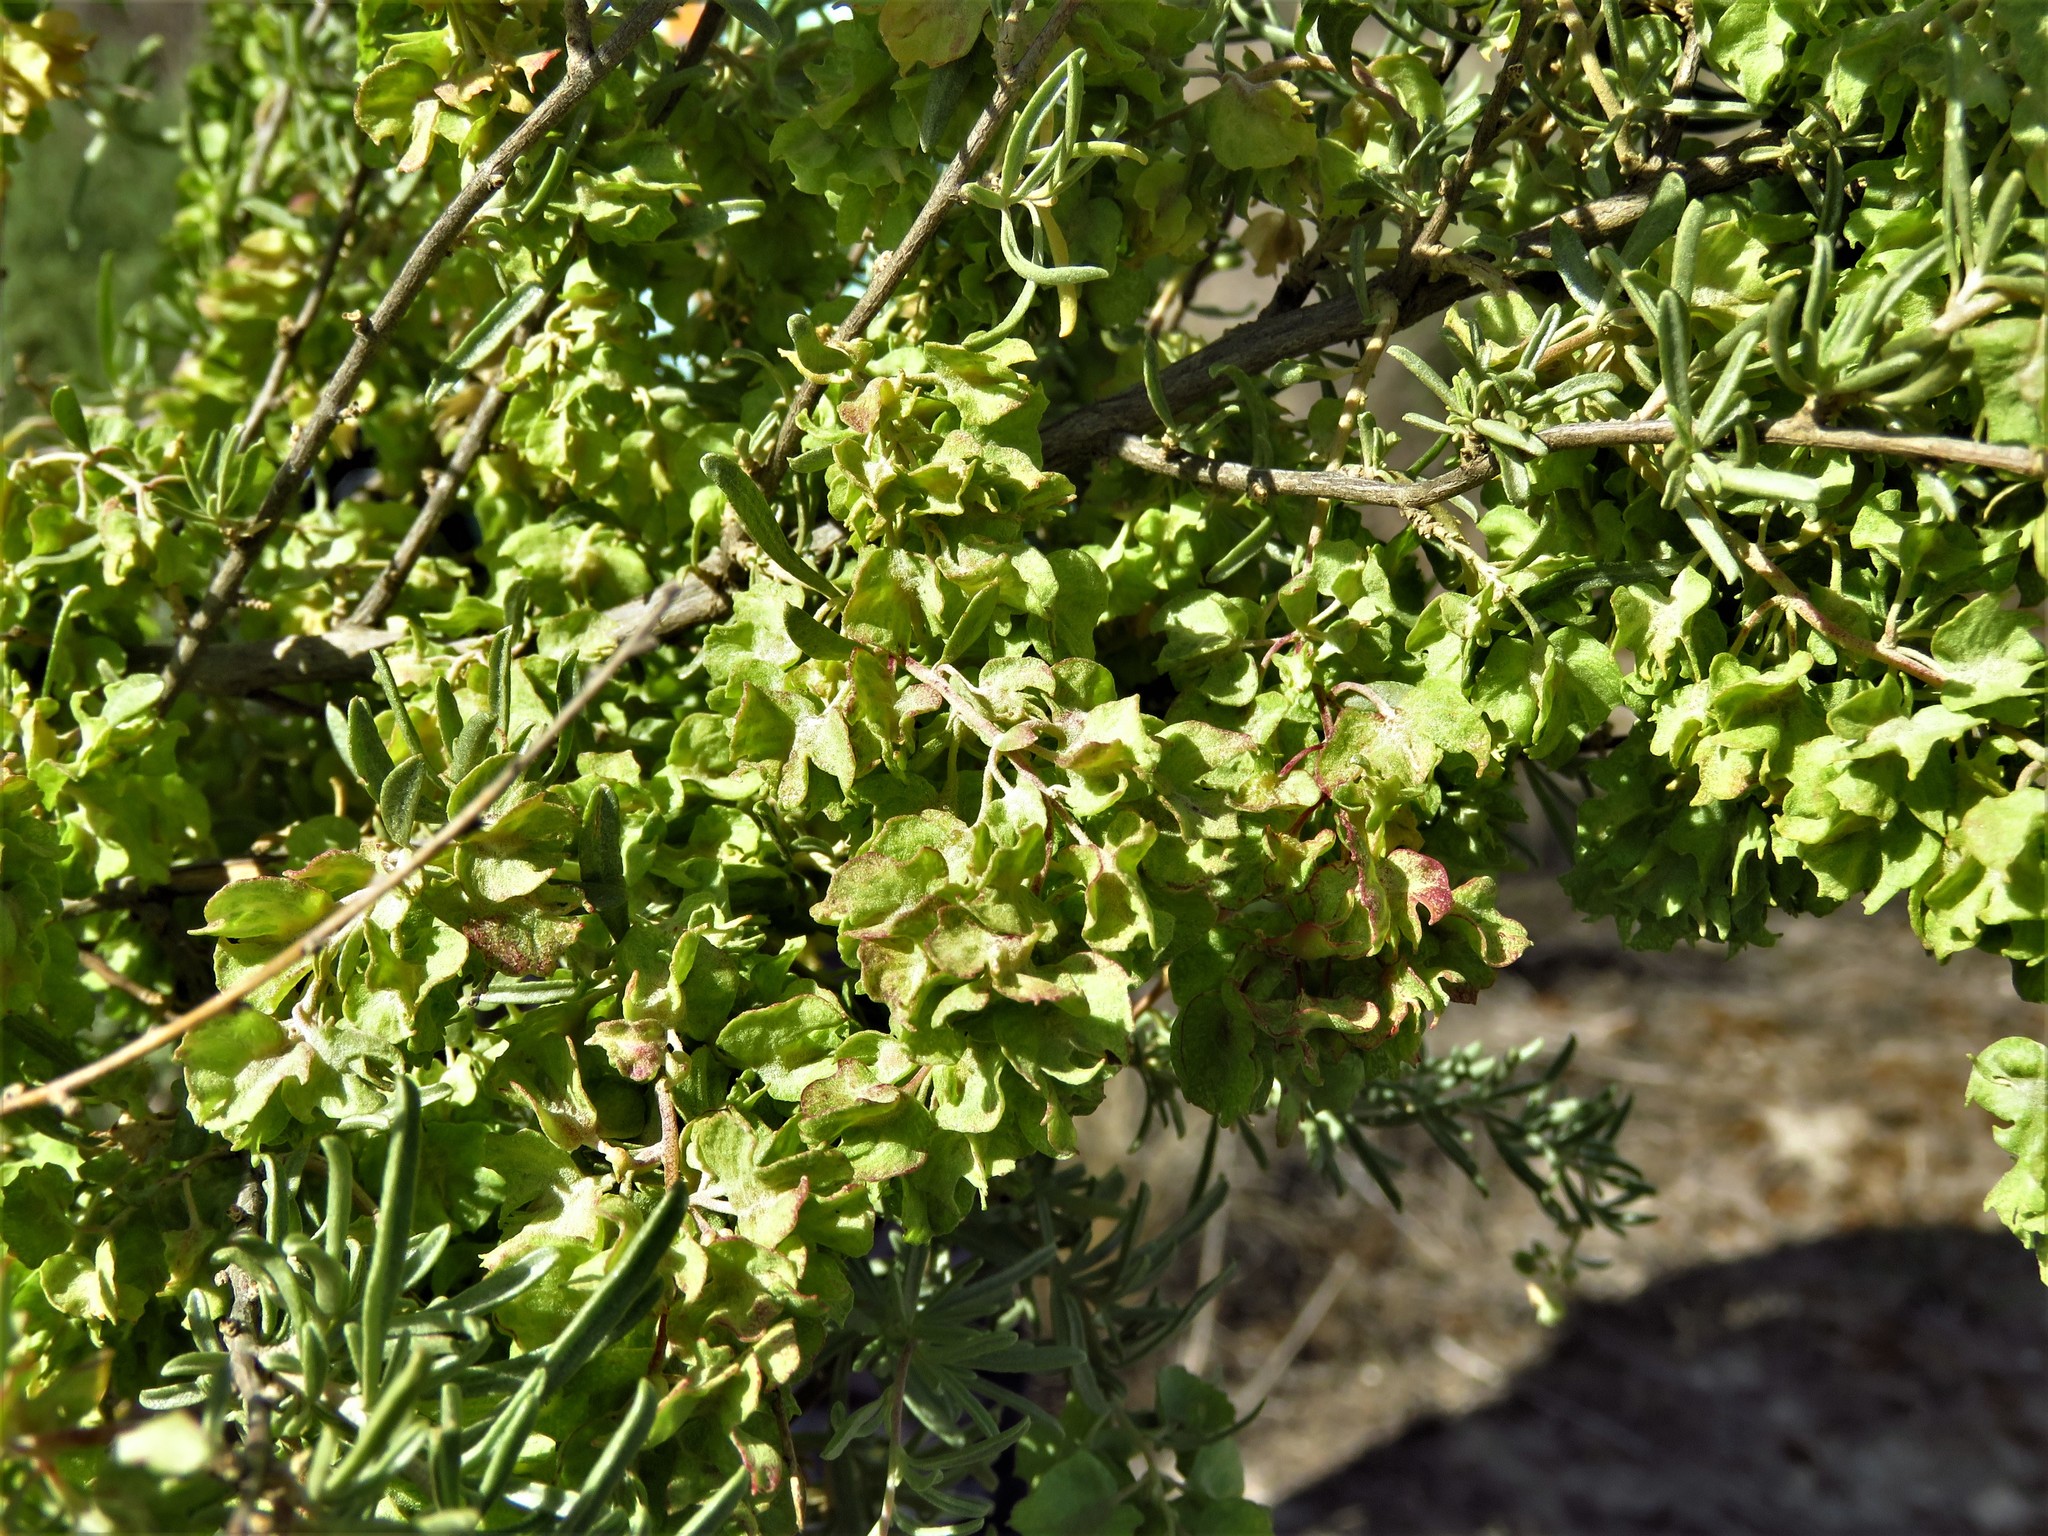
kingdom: Plantae
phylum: Tracheophyta
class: Magnoliopsida
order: Caryophyllales
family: Amaranthaceae
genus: Atriplex
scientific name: Atriplex canescens
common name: Four-wing saltbush
